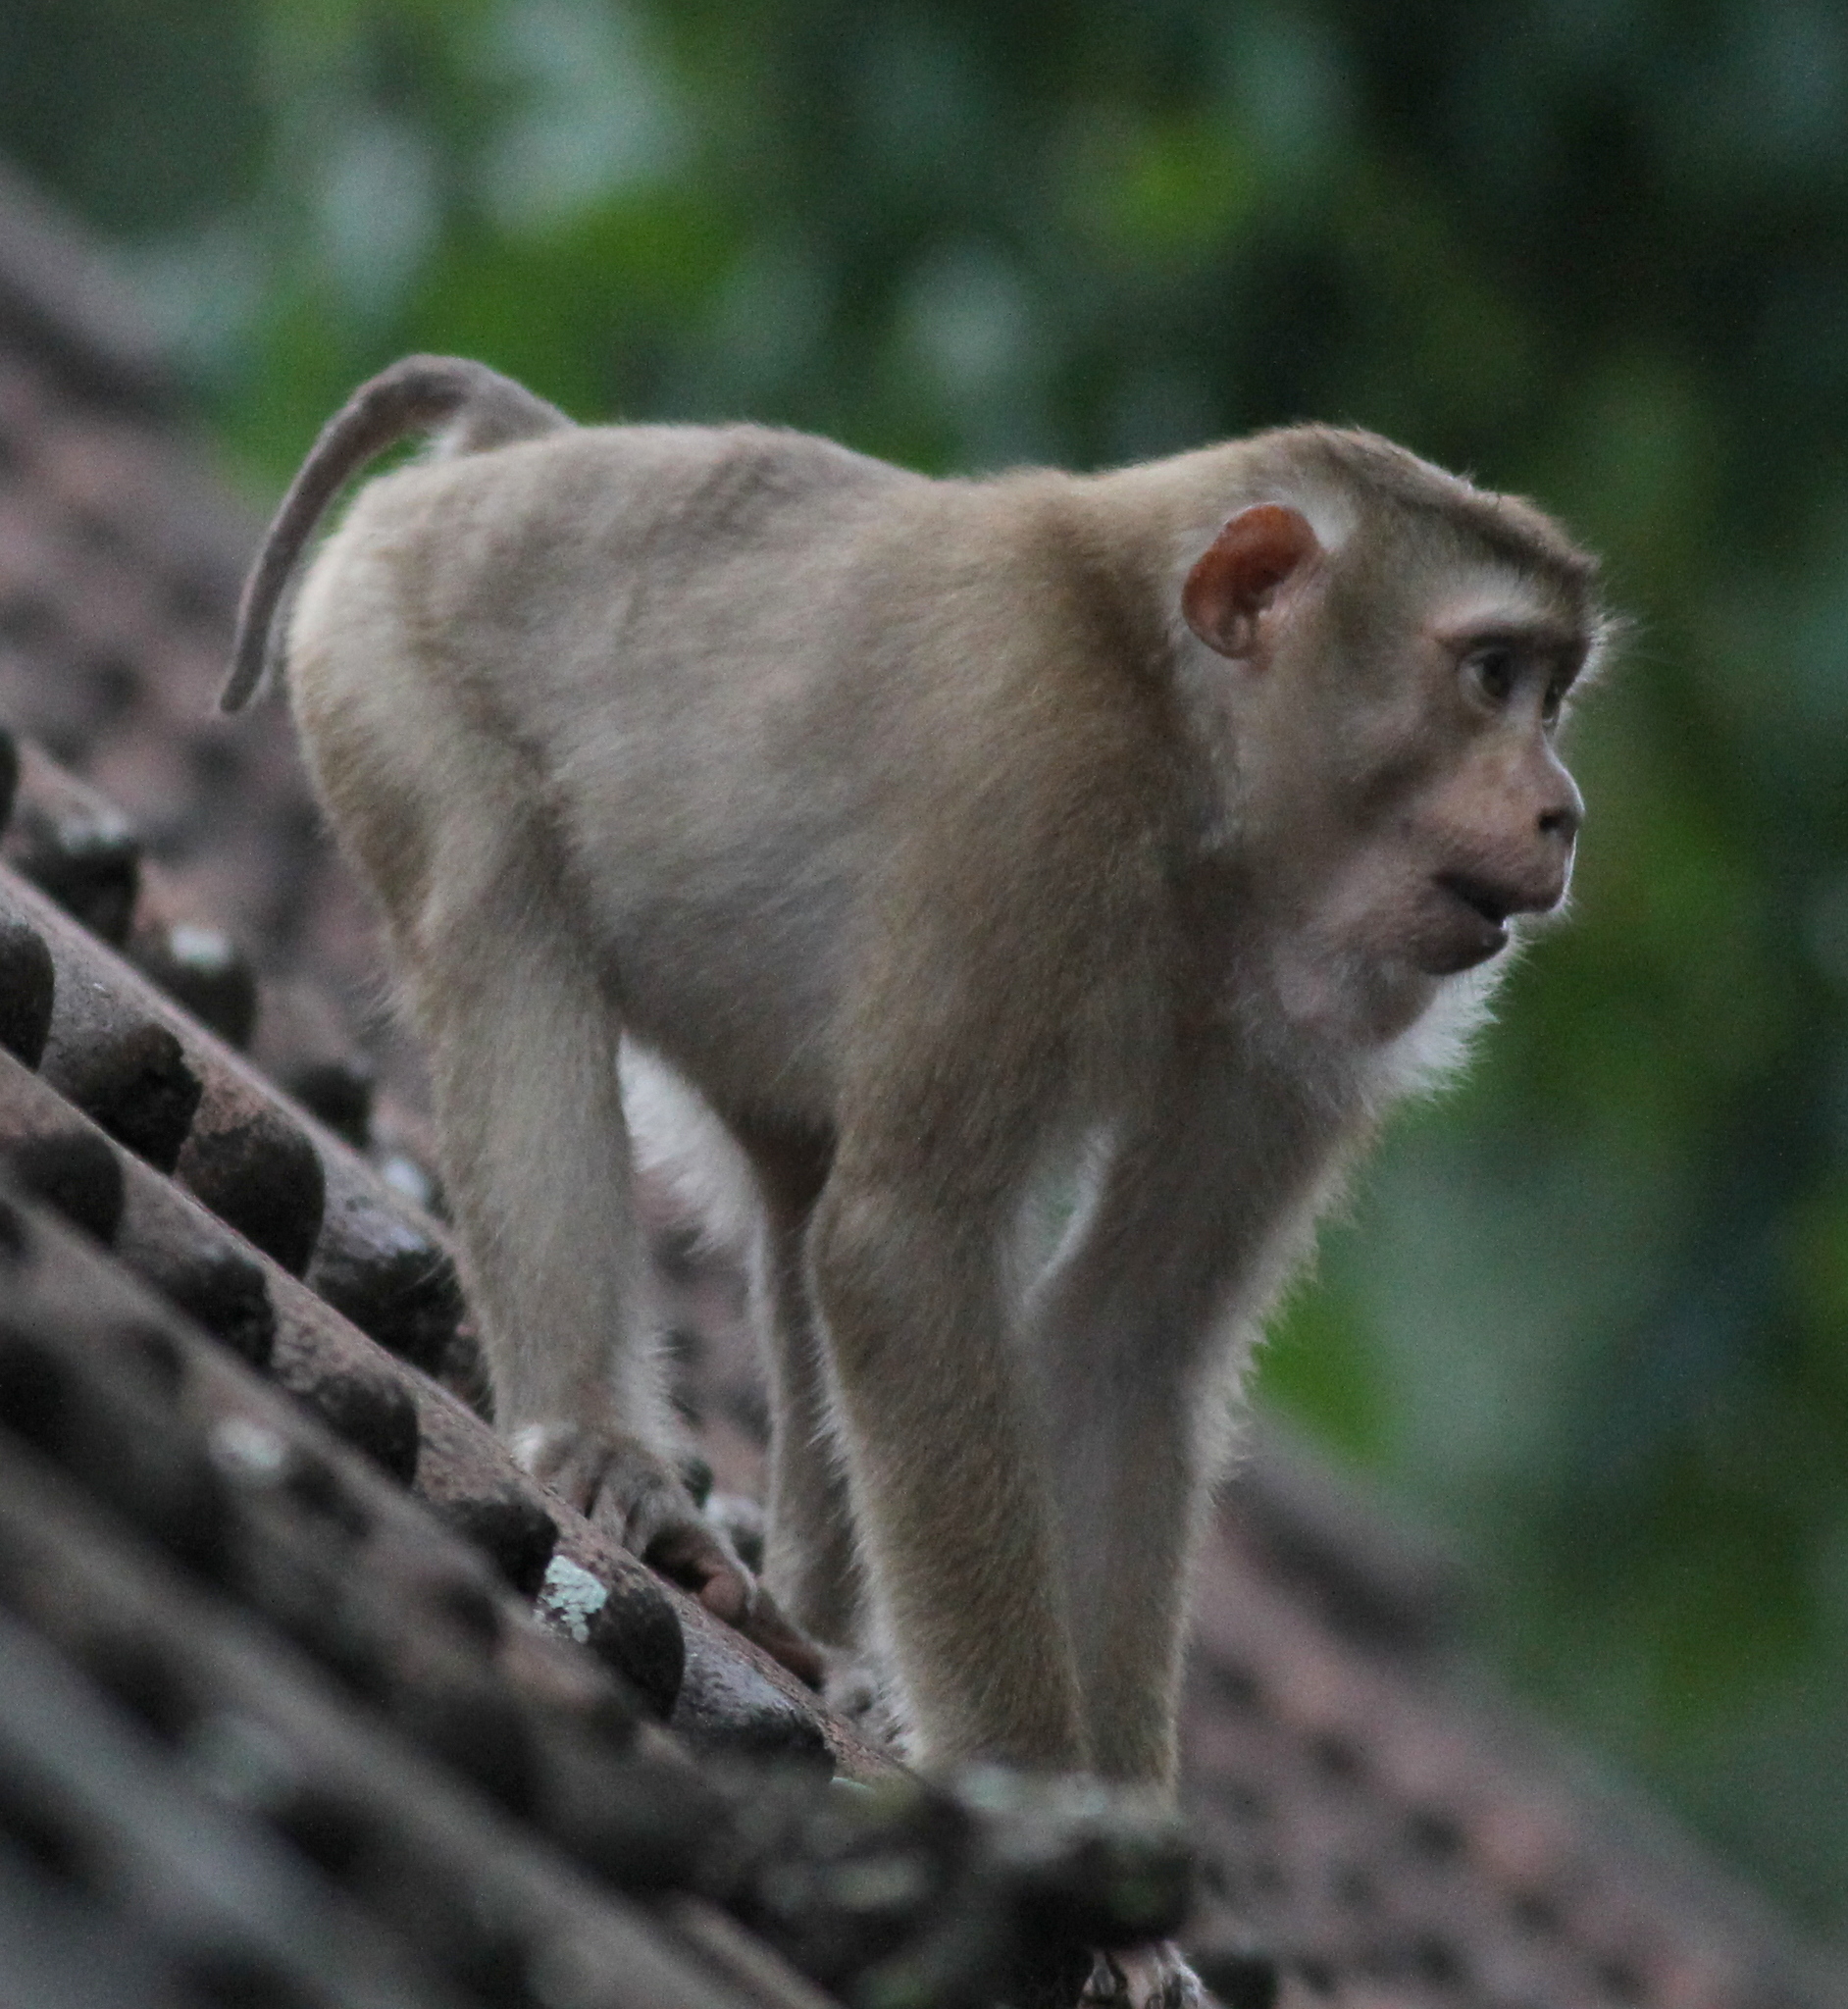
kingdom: Animalia
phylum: Chordata
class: Mammalia
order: Primates
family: Cercopithecidae
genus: Macaca
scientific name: Macaca leonina
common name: Northern pig-tailed macaque
